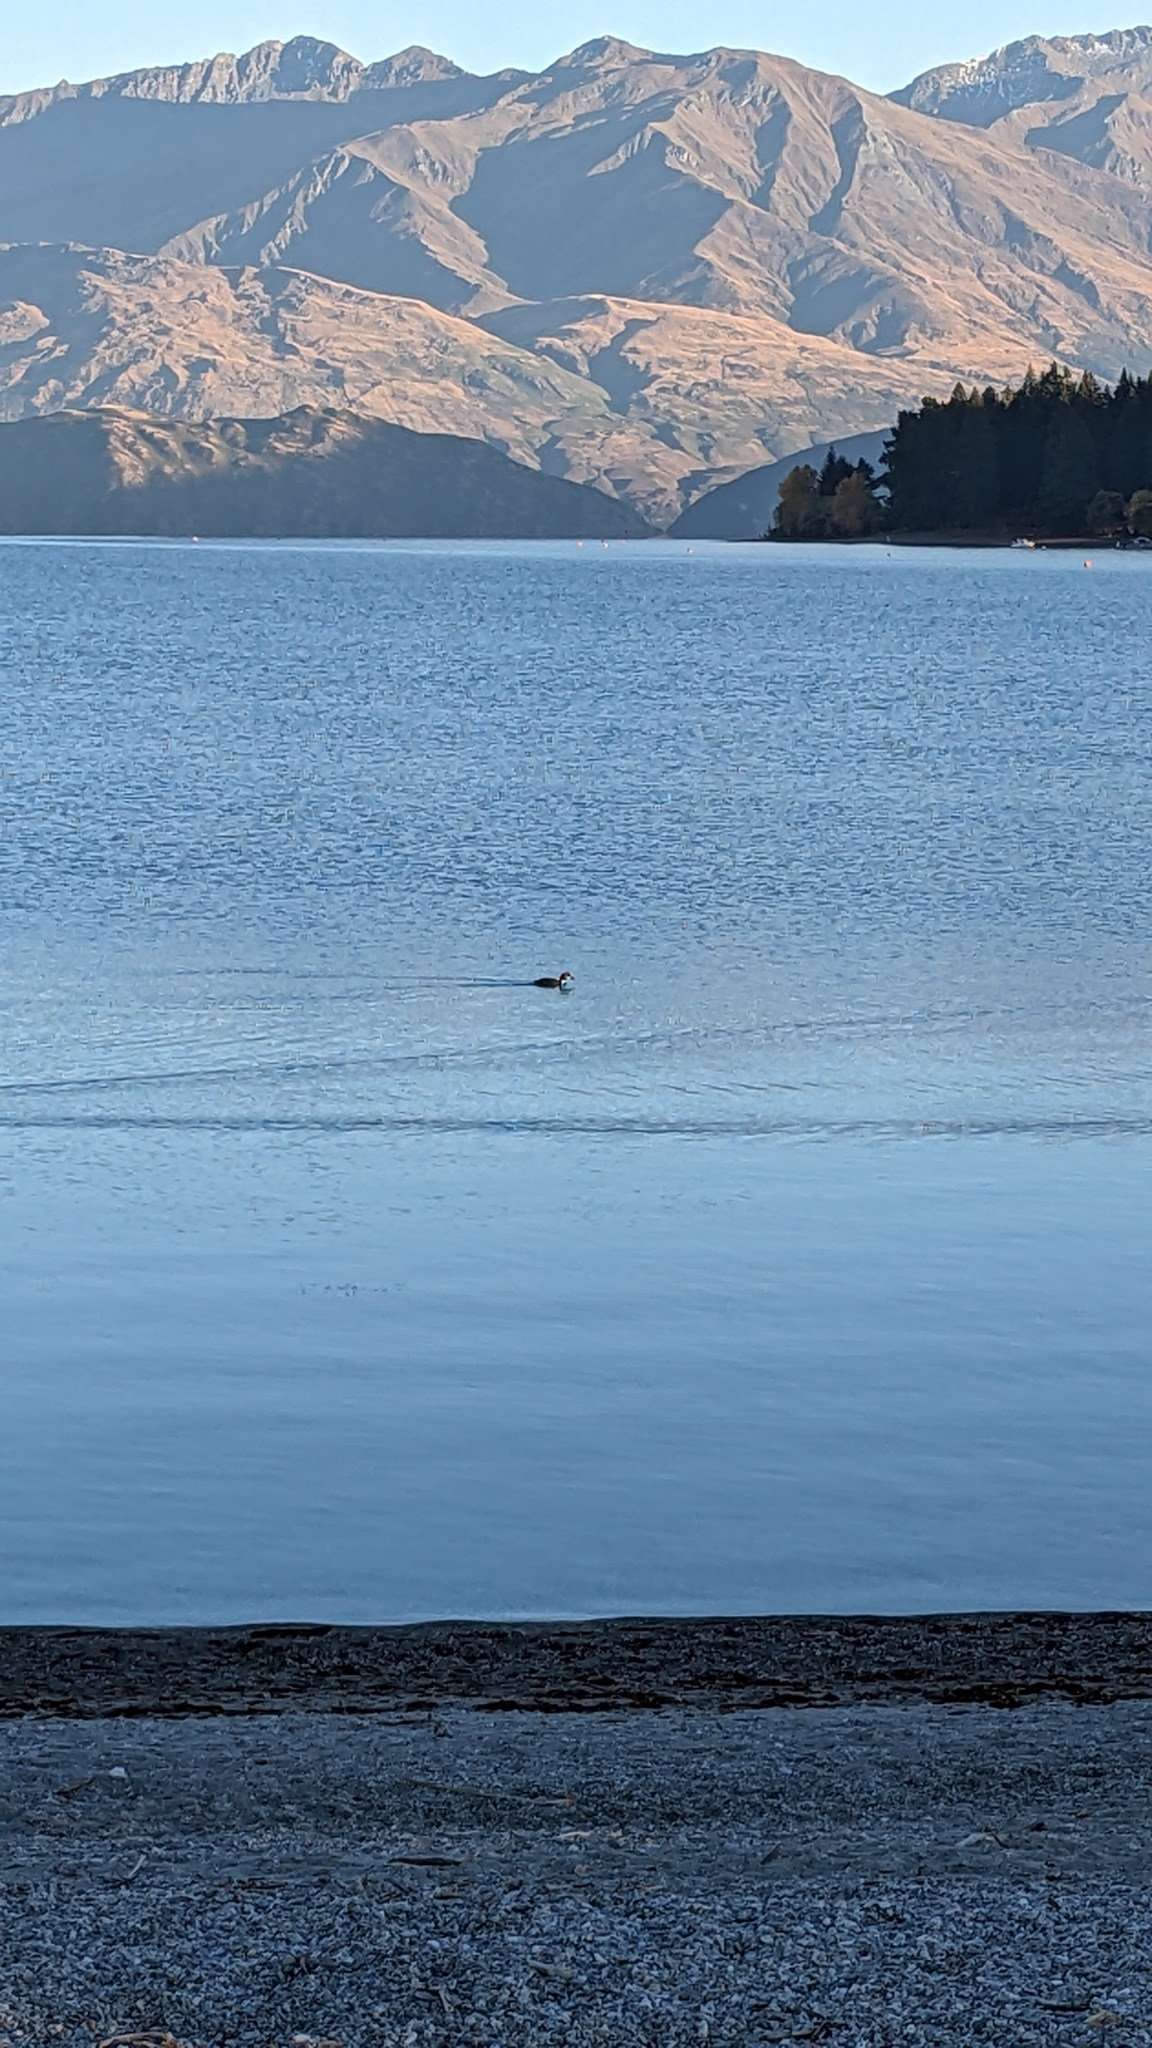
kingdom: Animalia
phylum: Chordata
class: Aves
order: Podicipediformes
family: Podicipedidae
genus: Podiceps
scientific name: Podiceps cristatus
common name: Great crested grebe
